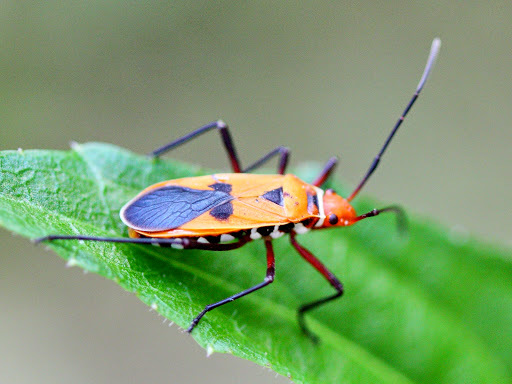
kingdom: Animalia
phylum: Arthropoda
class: Insecta
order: Hemiptera
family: Pyrrhocoridae
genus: Dysdercus
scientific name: Dysdercus poecilus
